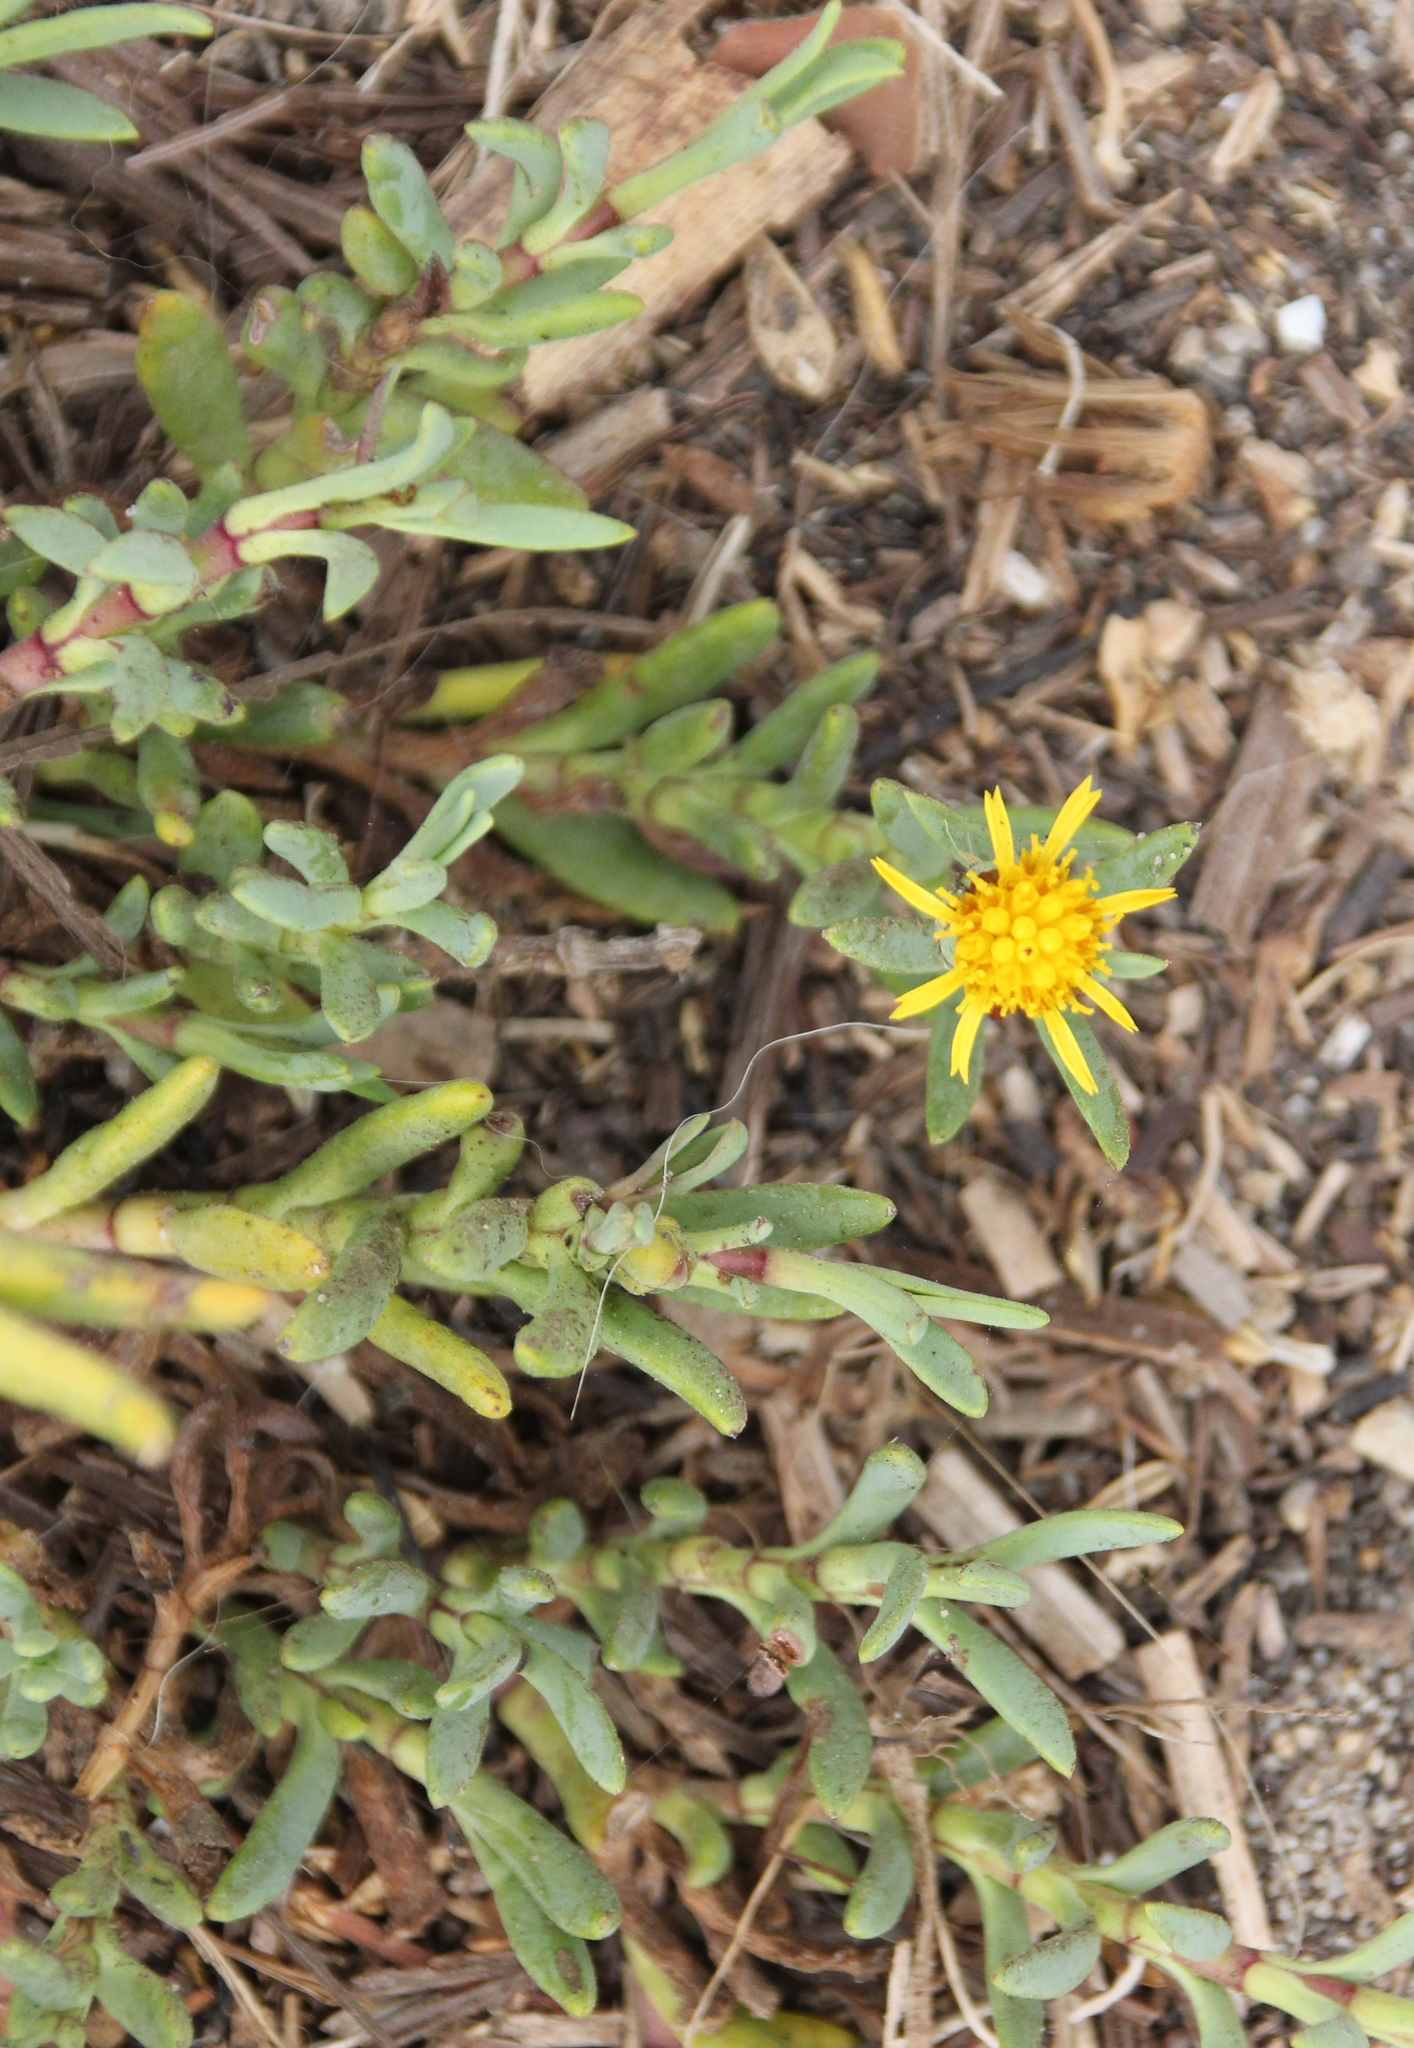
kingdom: Plantae
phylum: Tracheophyta
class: Magnoliopsida
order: Asterales
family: Asteraceae
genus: Jaumea
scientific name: Jaumea carnosa
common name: Fleshy jaumea
